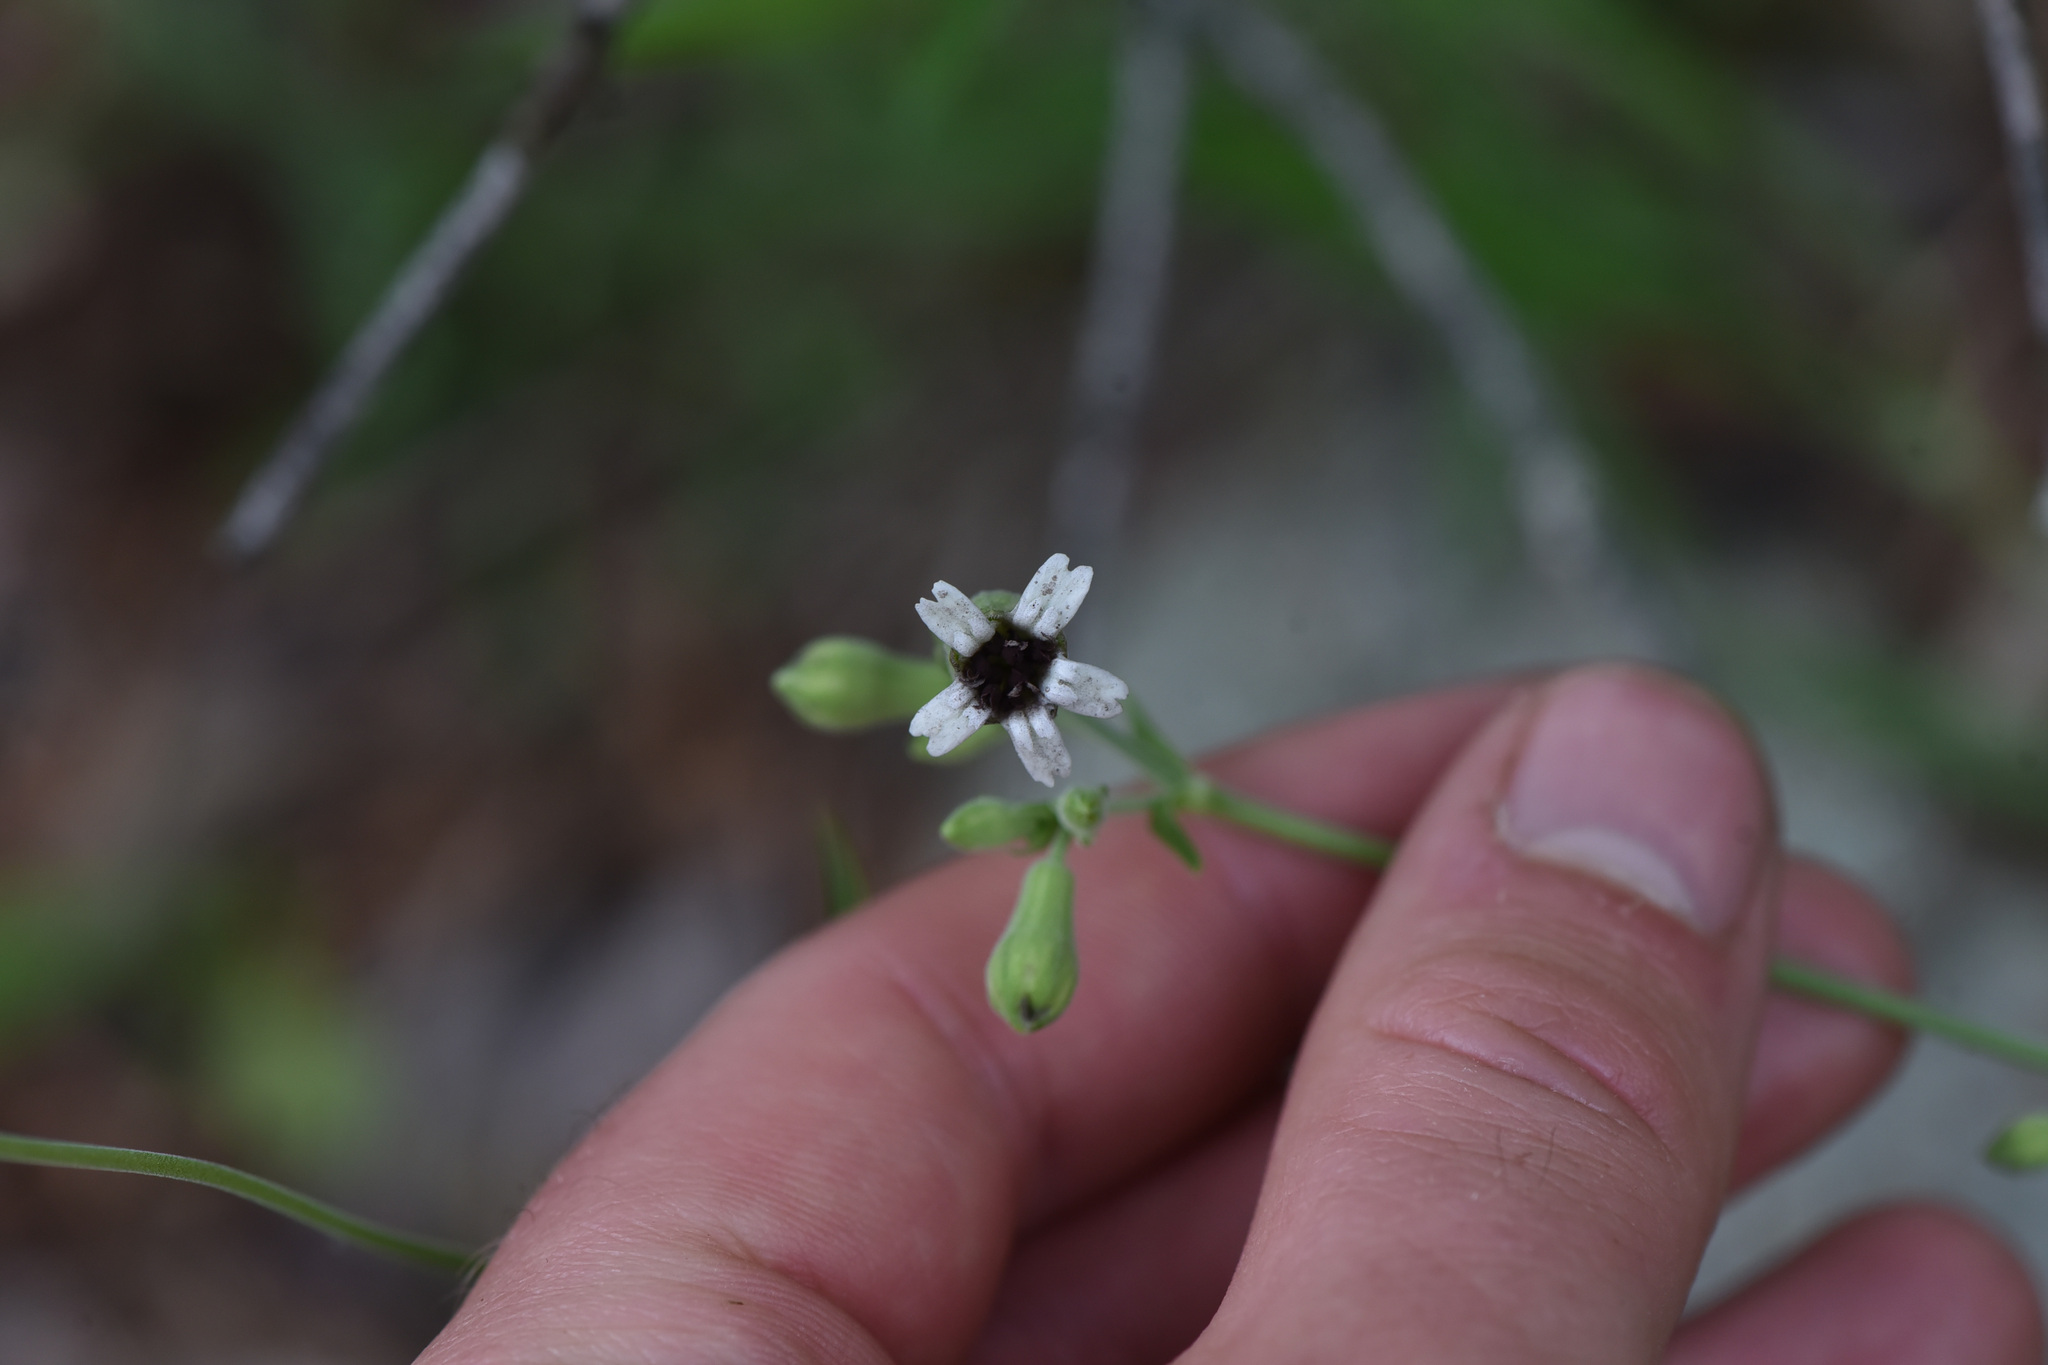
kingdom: Plantae
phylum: Tracheophyta
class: Magnoliopsida
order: Caryophyllales
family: Caryophyllaceae
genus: Silene
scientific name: Silene douglasii
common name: Douglas's catchfly
